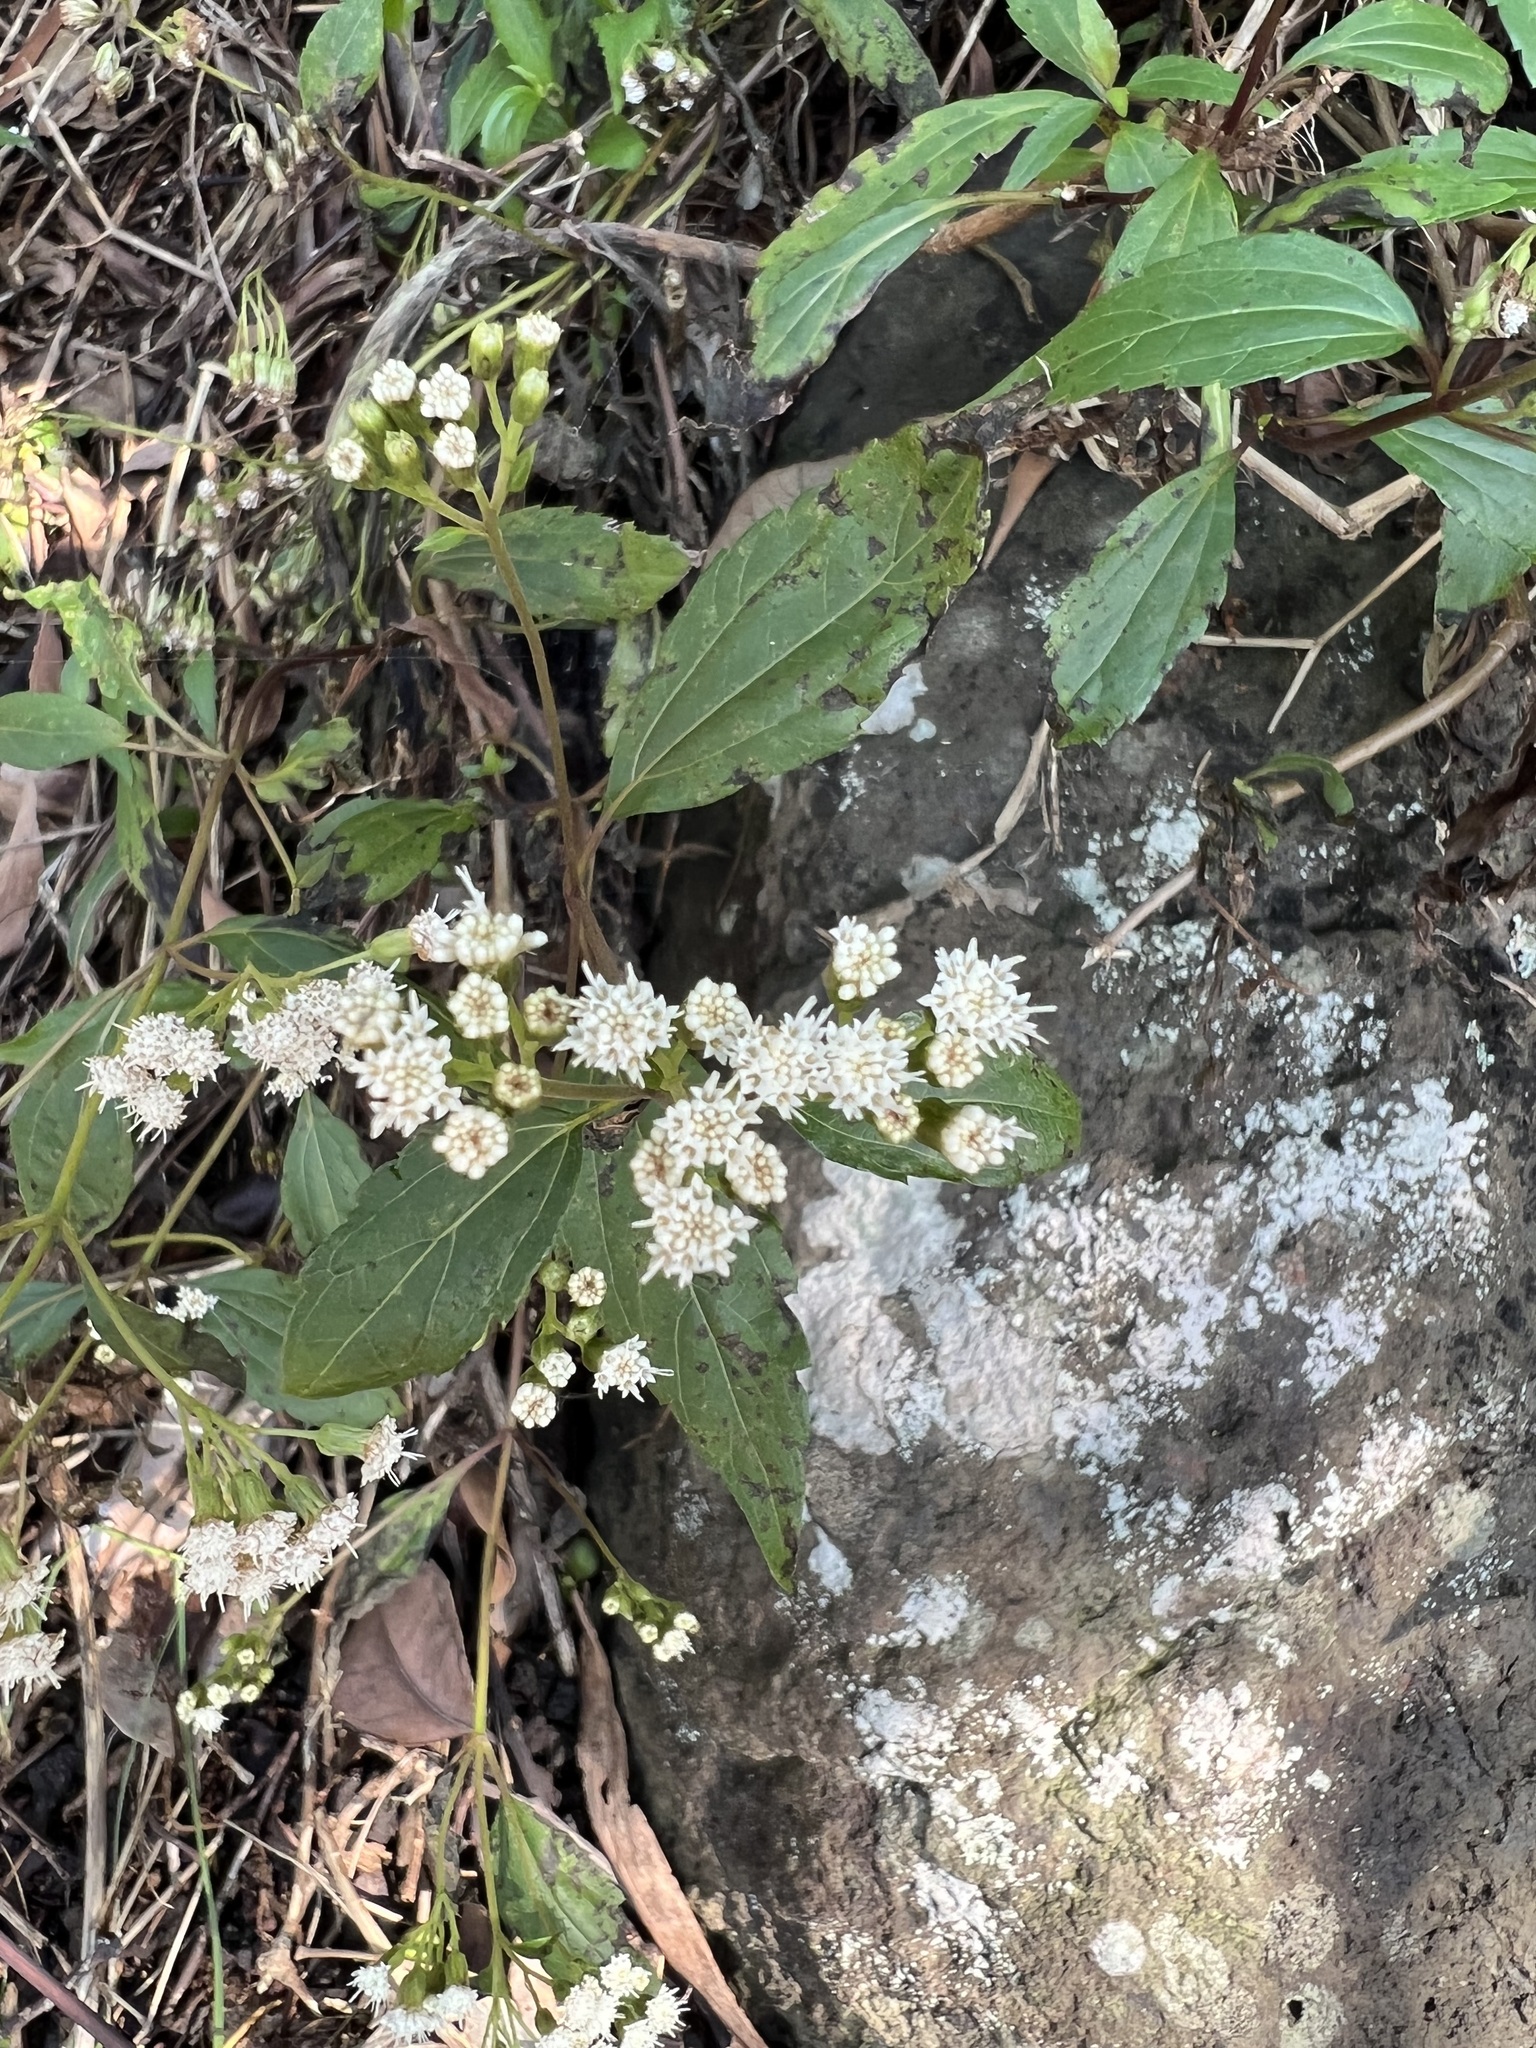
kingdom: Plantae
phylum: Tracheophyta
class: Magnoliopsida
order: Asterales
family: Asteraceae
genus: Ageratina
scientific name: Ageratina riparia
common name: Creeping croftonweed
